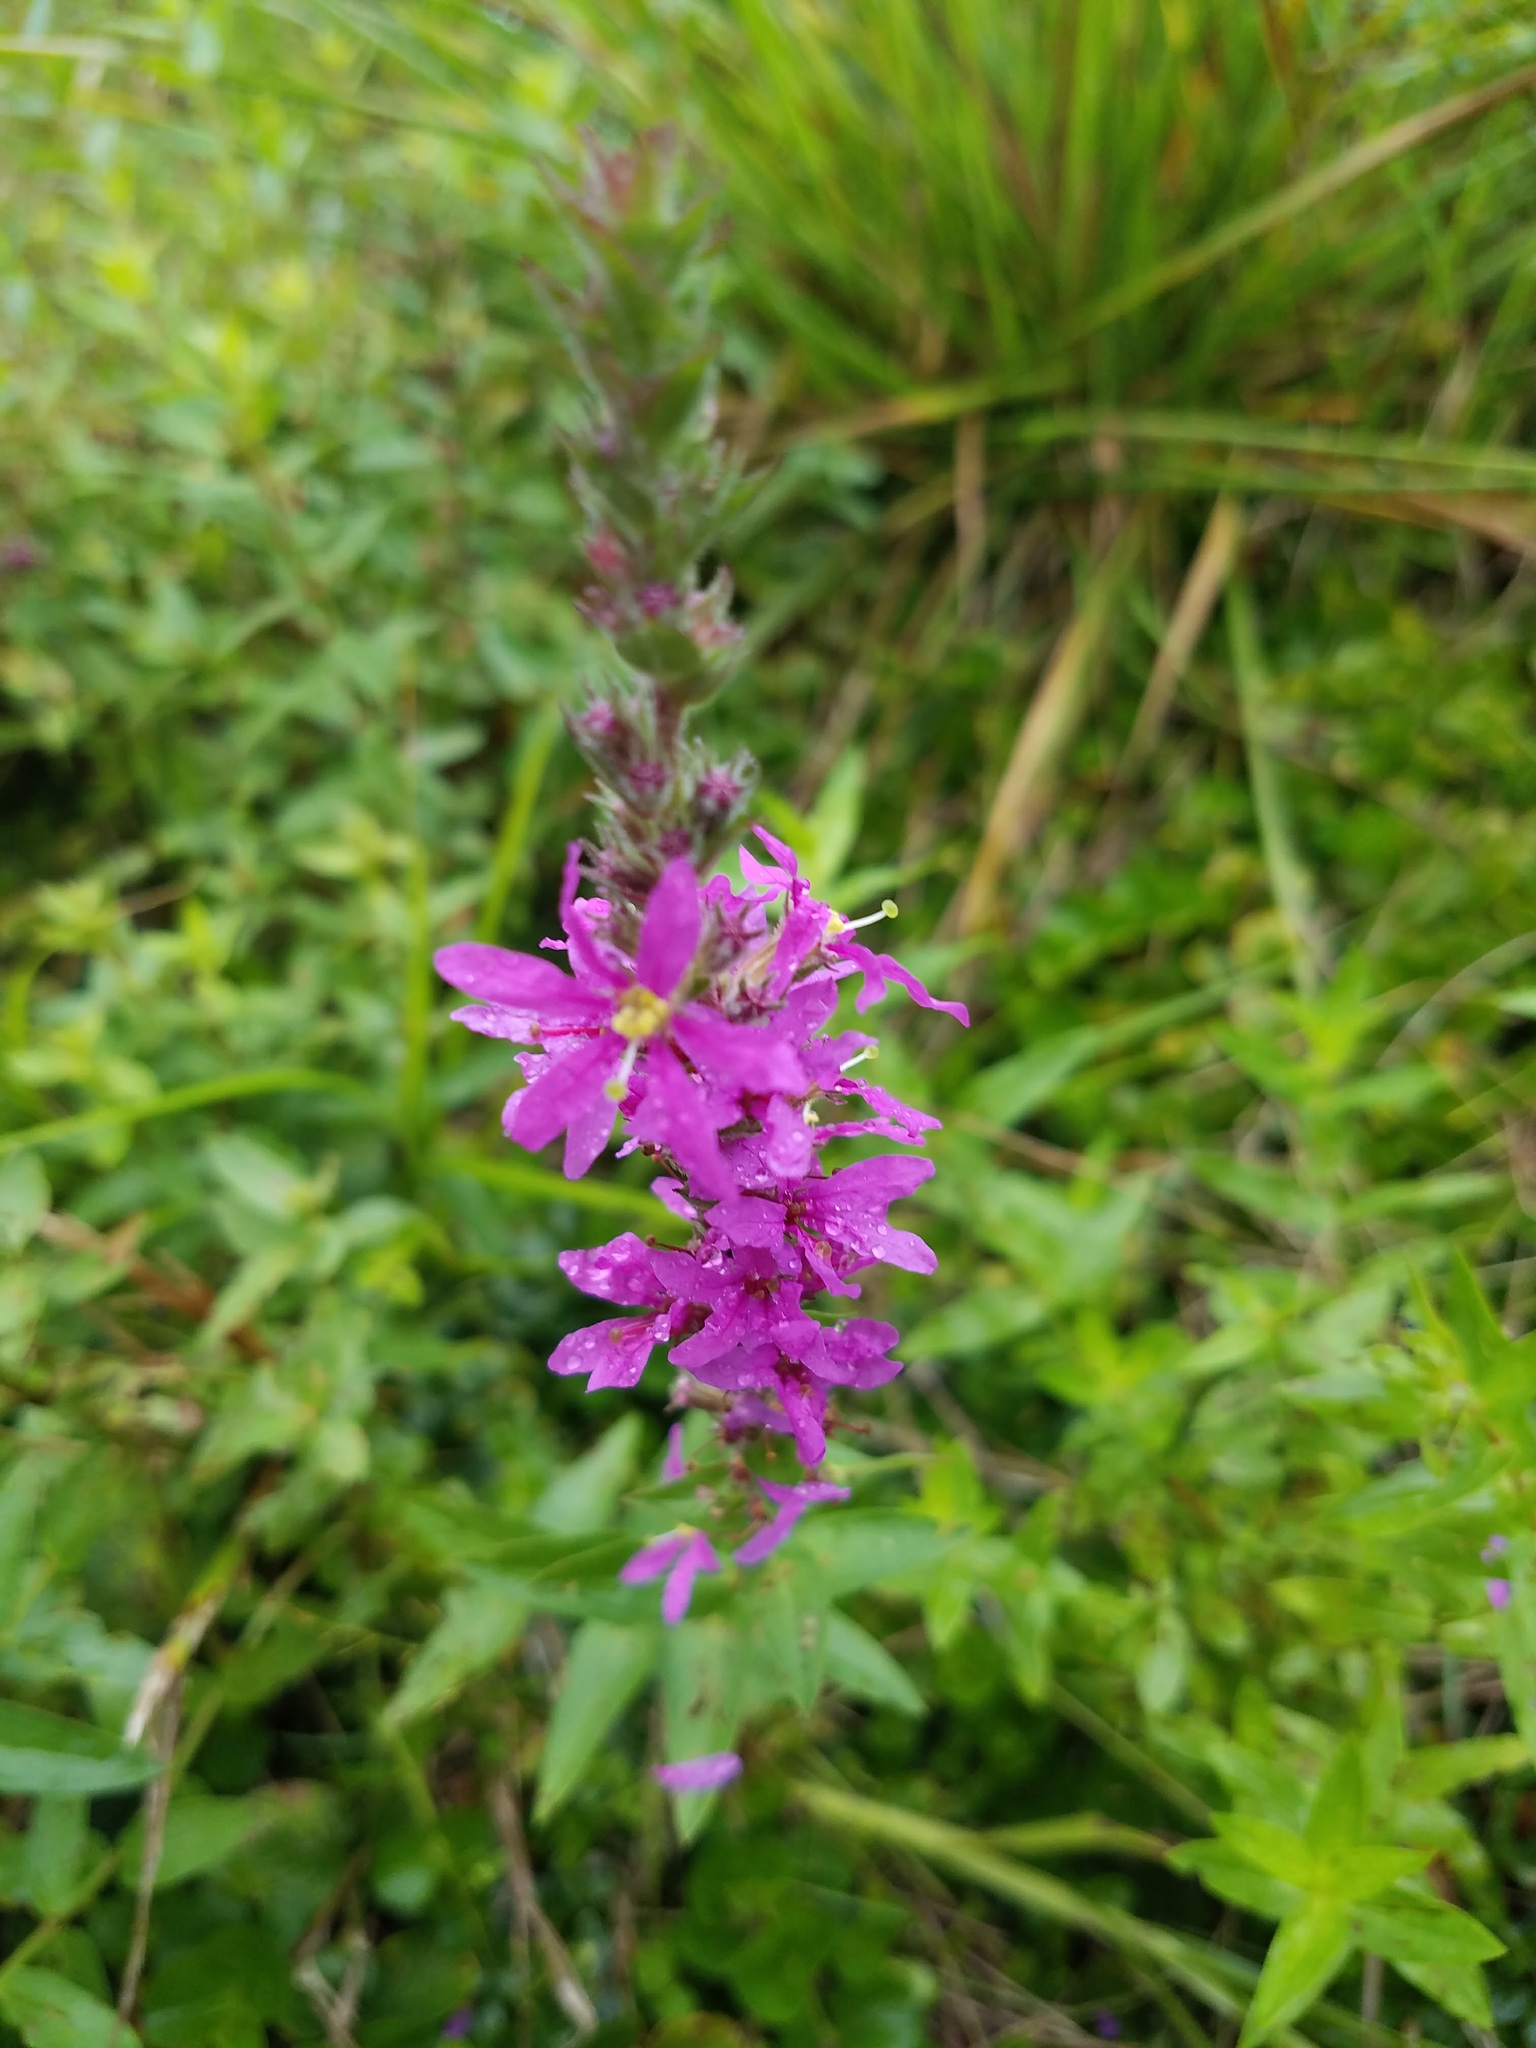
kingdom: Plantae
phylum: Tracheophyta
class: Magnoliopsida
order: Myrtales
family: Lythraceae
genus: Lythrum
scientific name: Lythrum salicaria
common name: Purple loosestrife
